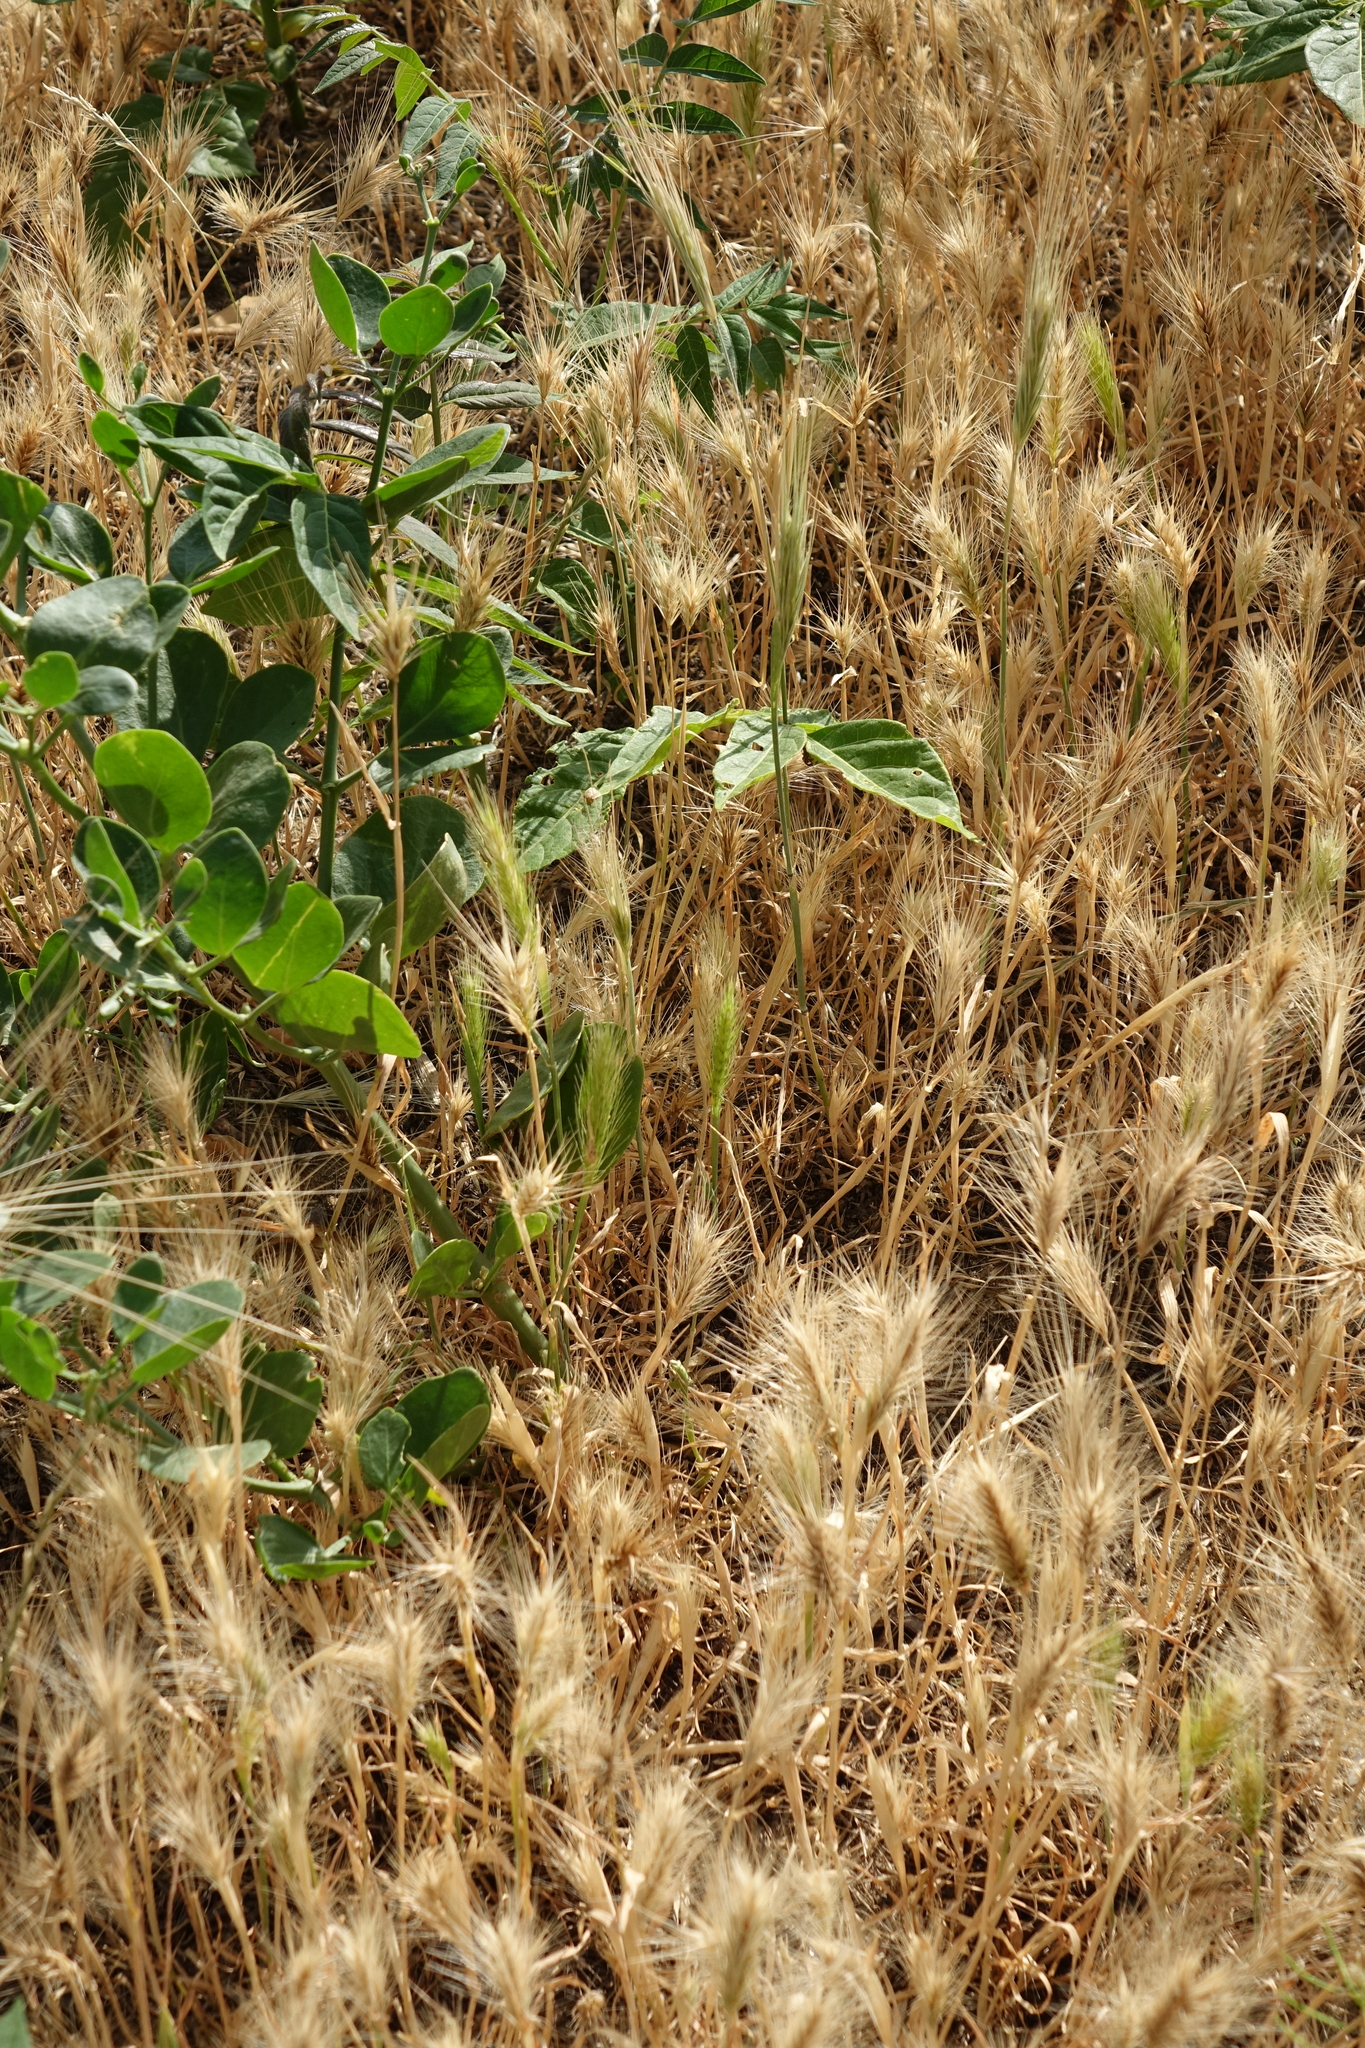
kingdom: Plantae
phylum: Tracheophyta
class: Liliopsida
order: Poales
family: Poaceae
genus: Hordeum
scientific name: Hordeum murinum
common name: Wall barley
